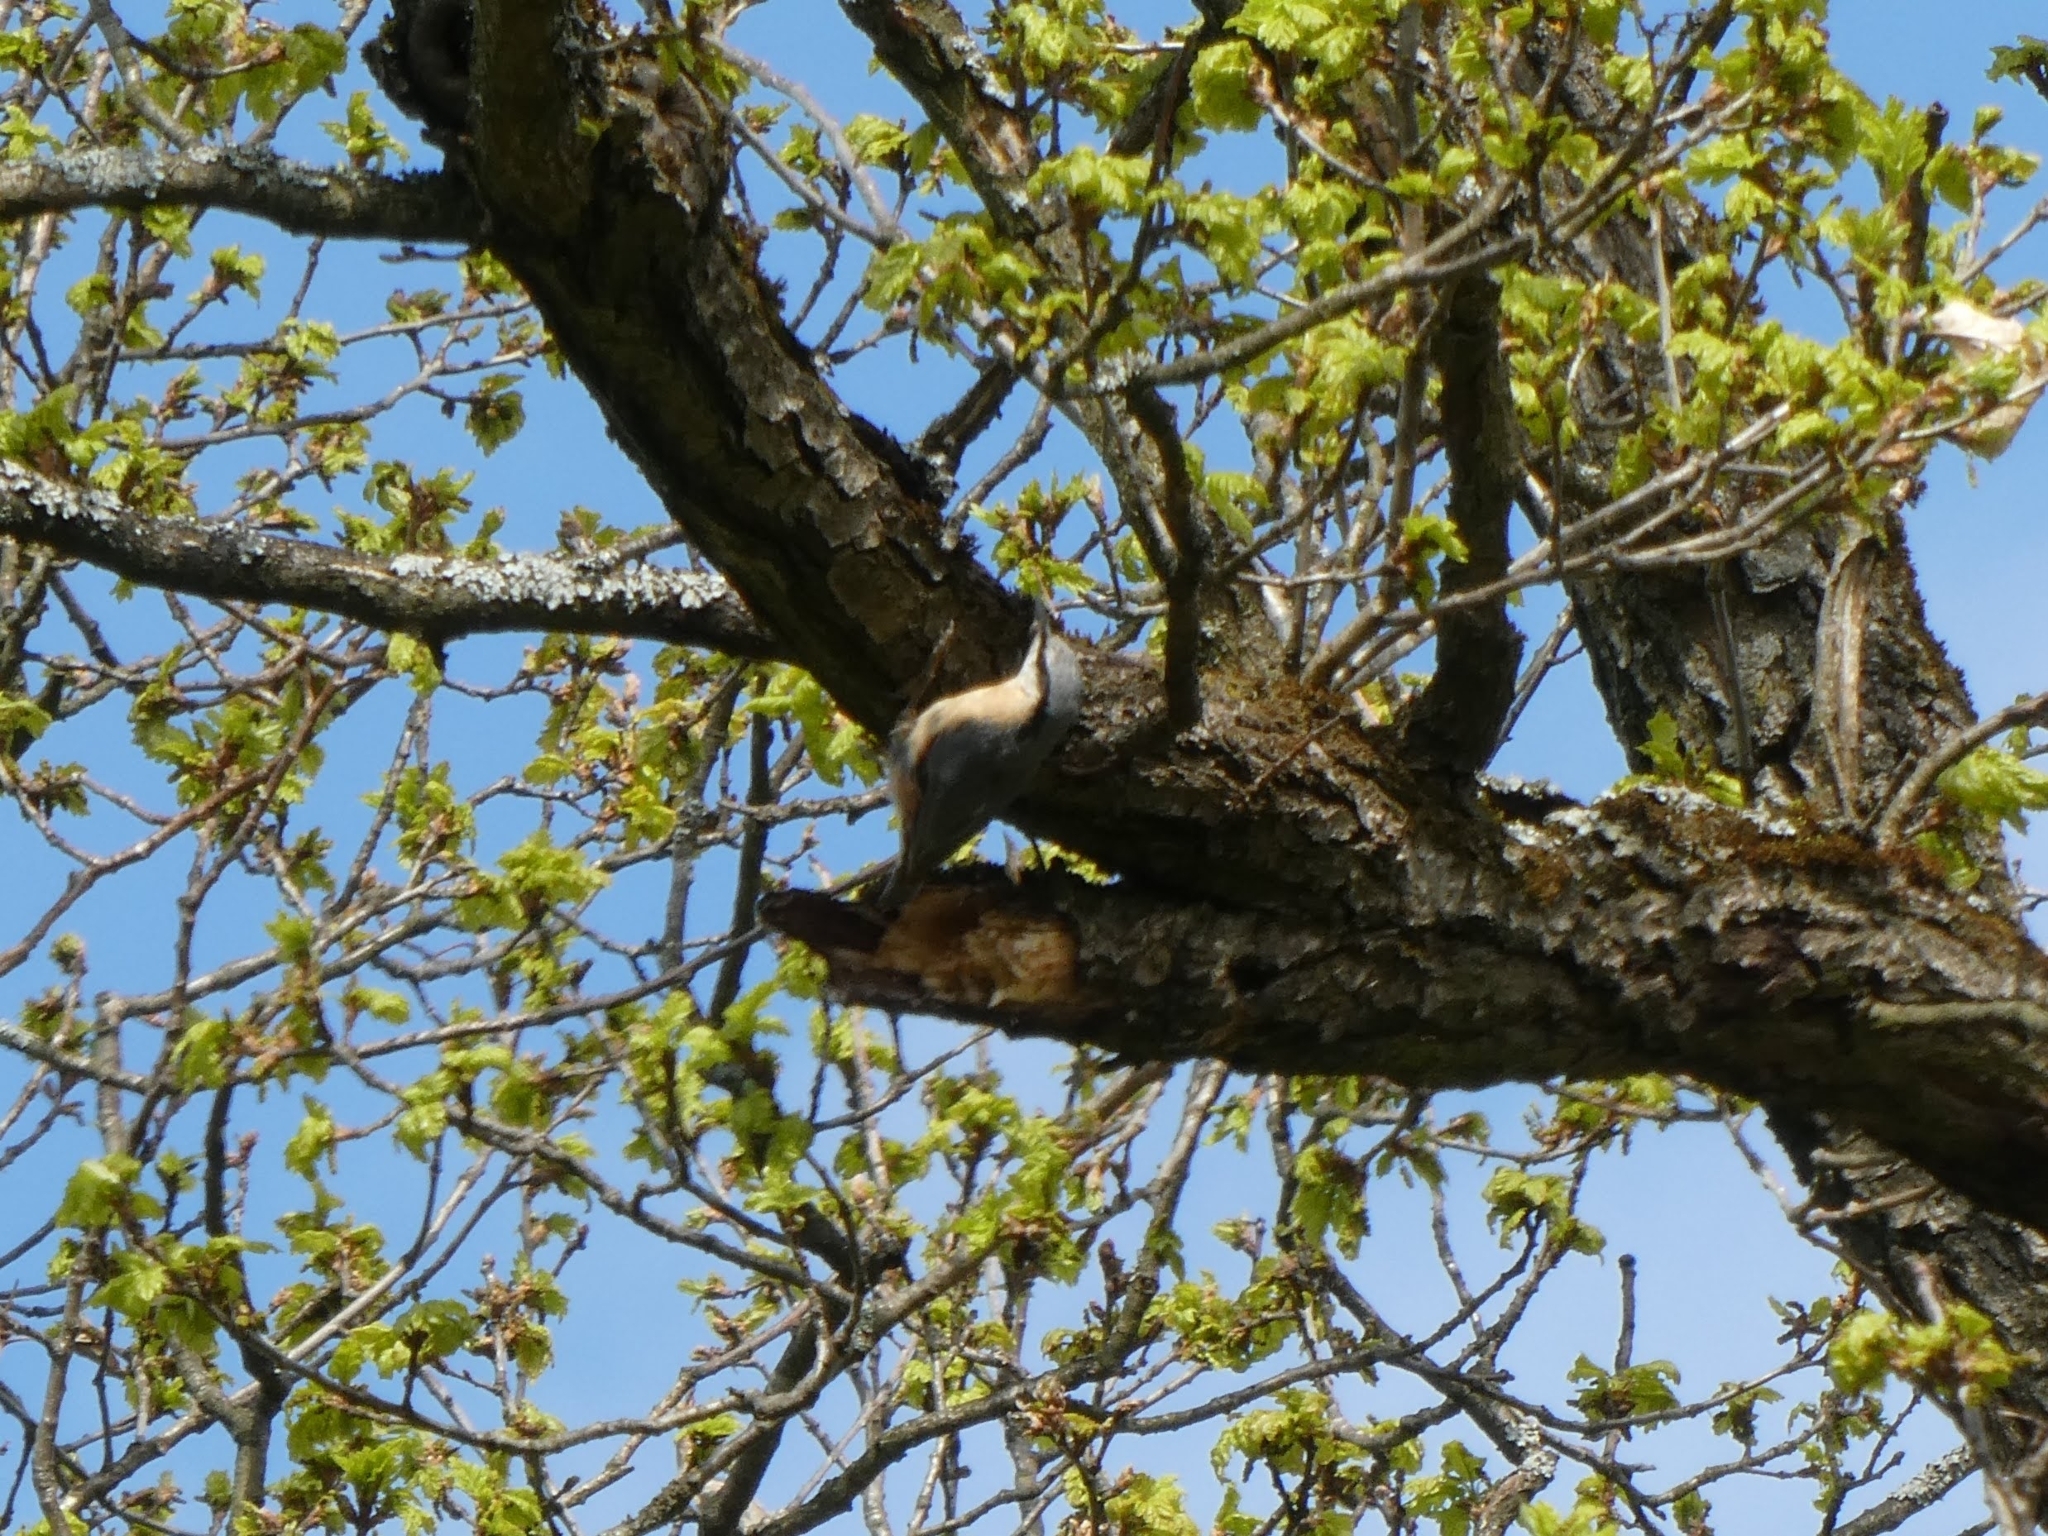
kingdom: Animalia
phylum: Chordata
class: Aves
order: Passeriformes
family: Sittidae
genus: Sitta
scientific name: Sitta europaea
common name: Eurasian nuthatch
